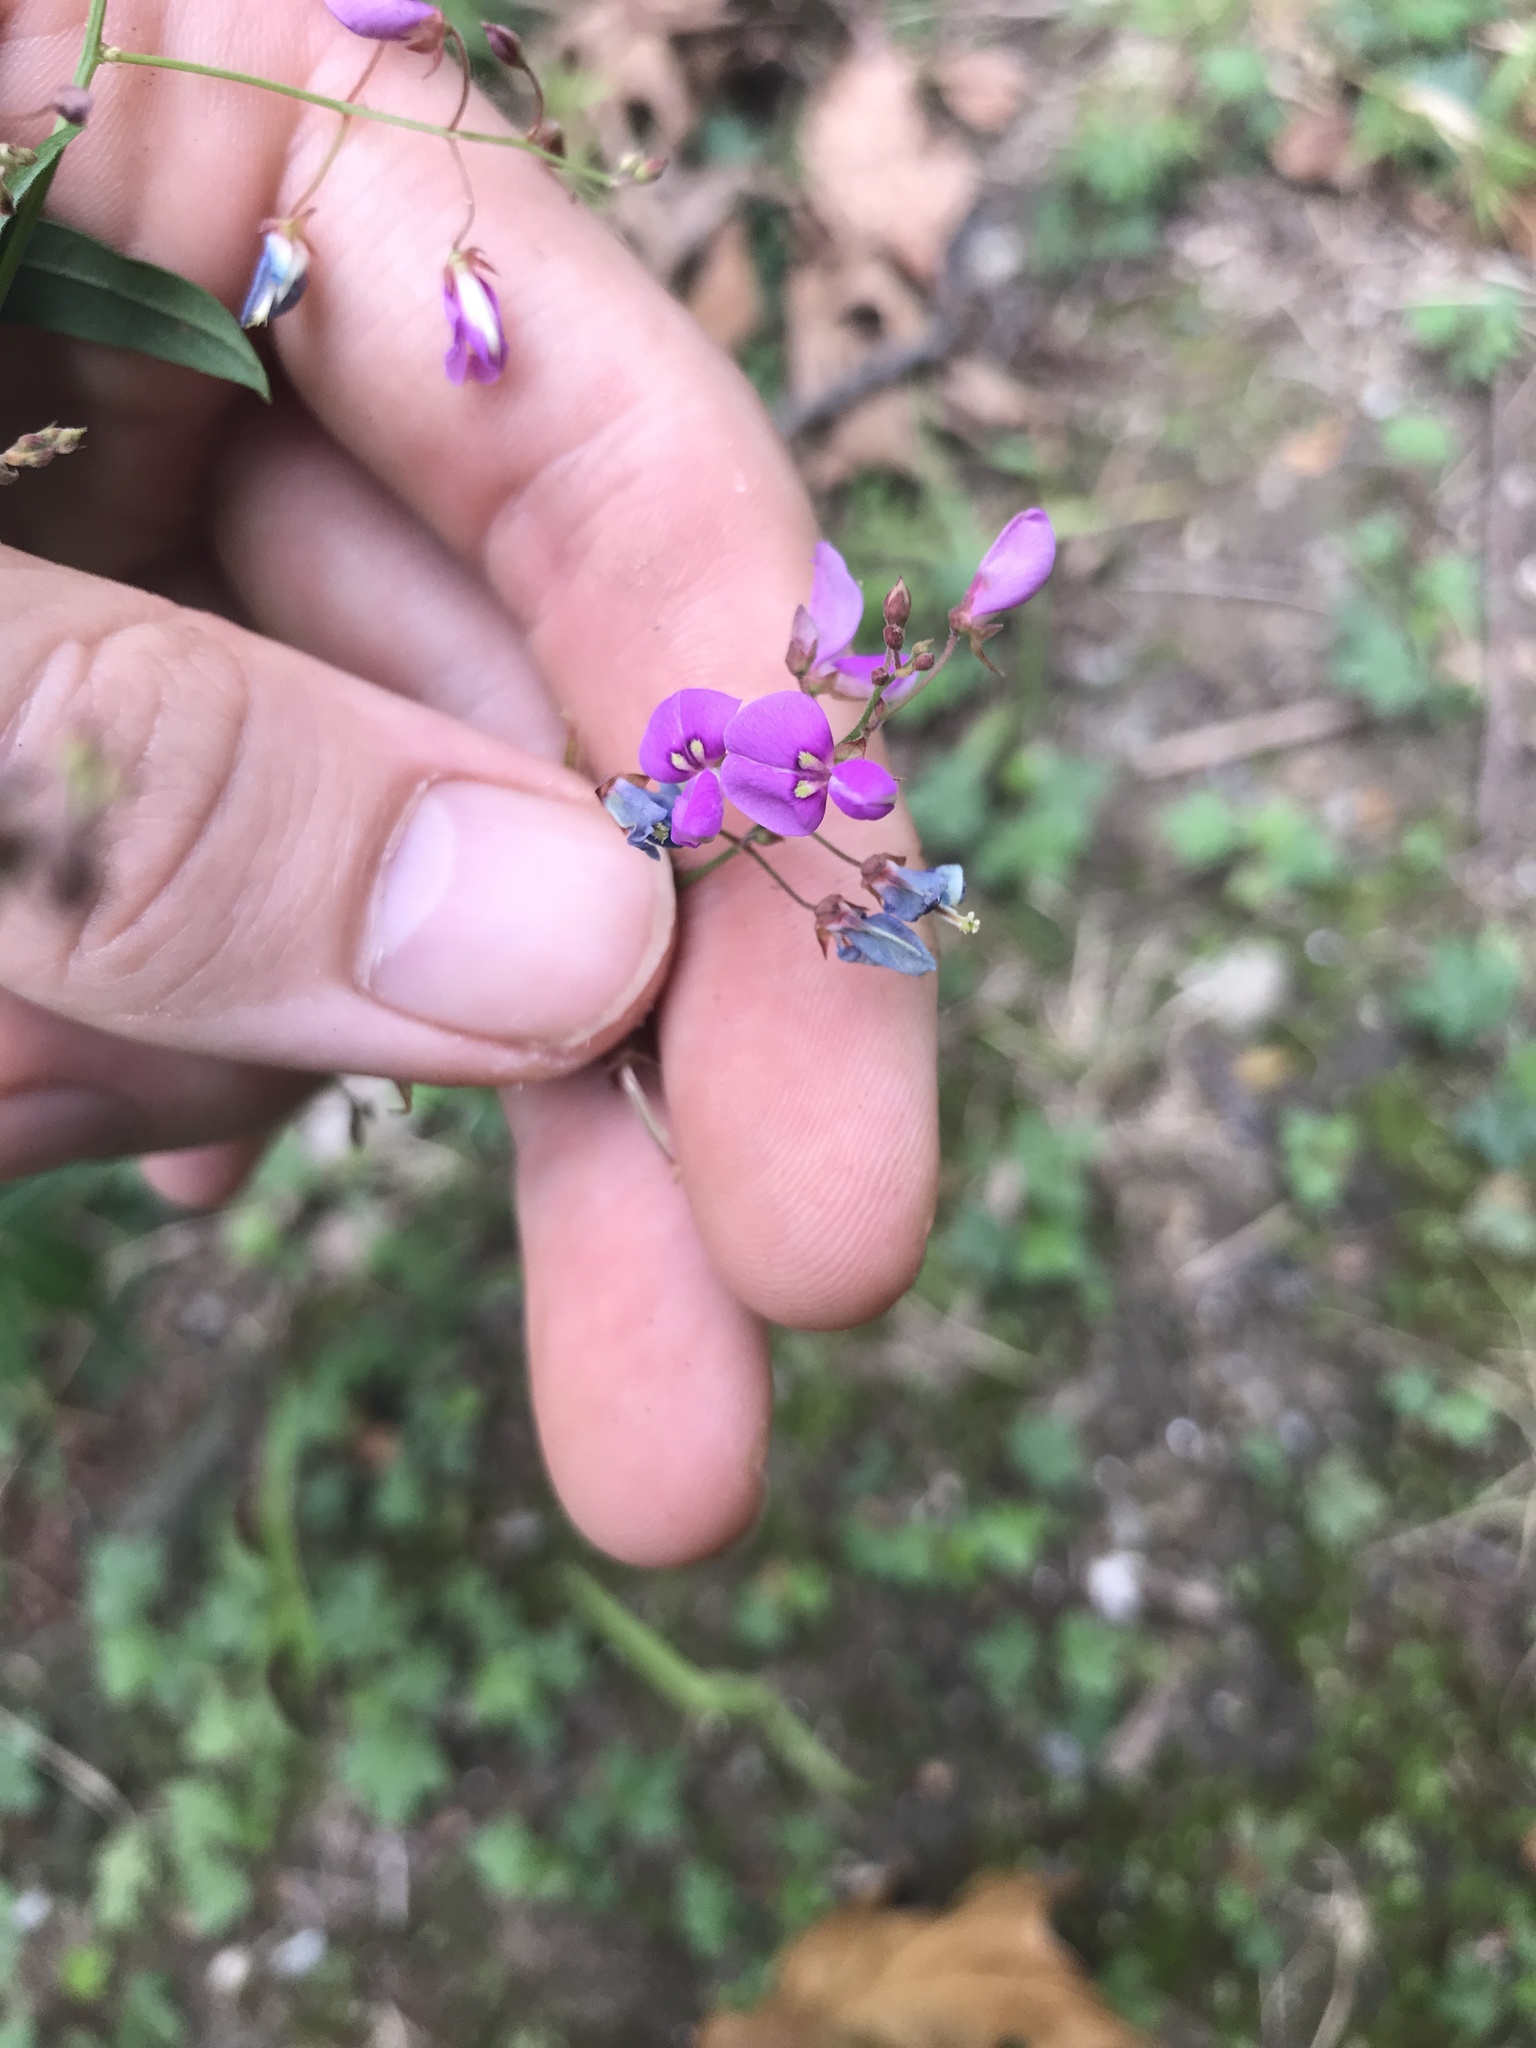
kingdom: Plantae
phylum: Tracheophyta
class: Magnoliopsida
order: Fabales
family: Fabaceae
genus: Desmodium
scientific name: Desmodium paniculatum
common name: Panicled tick-clover
